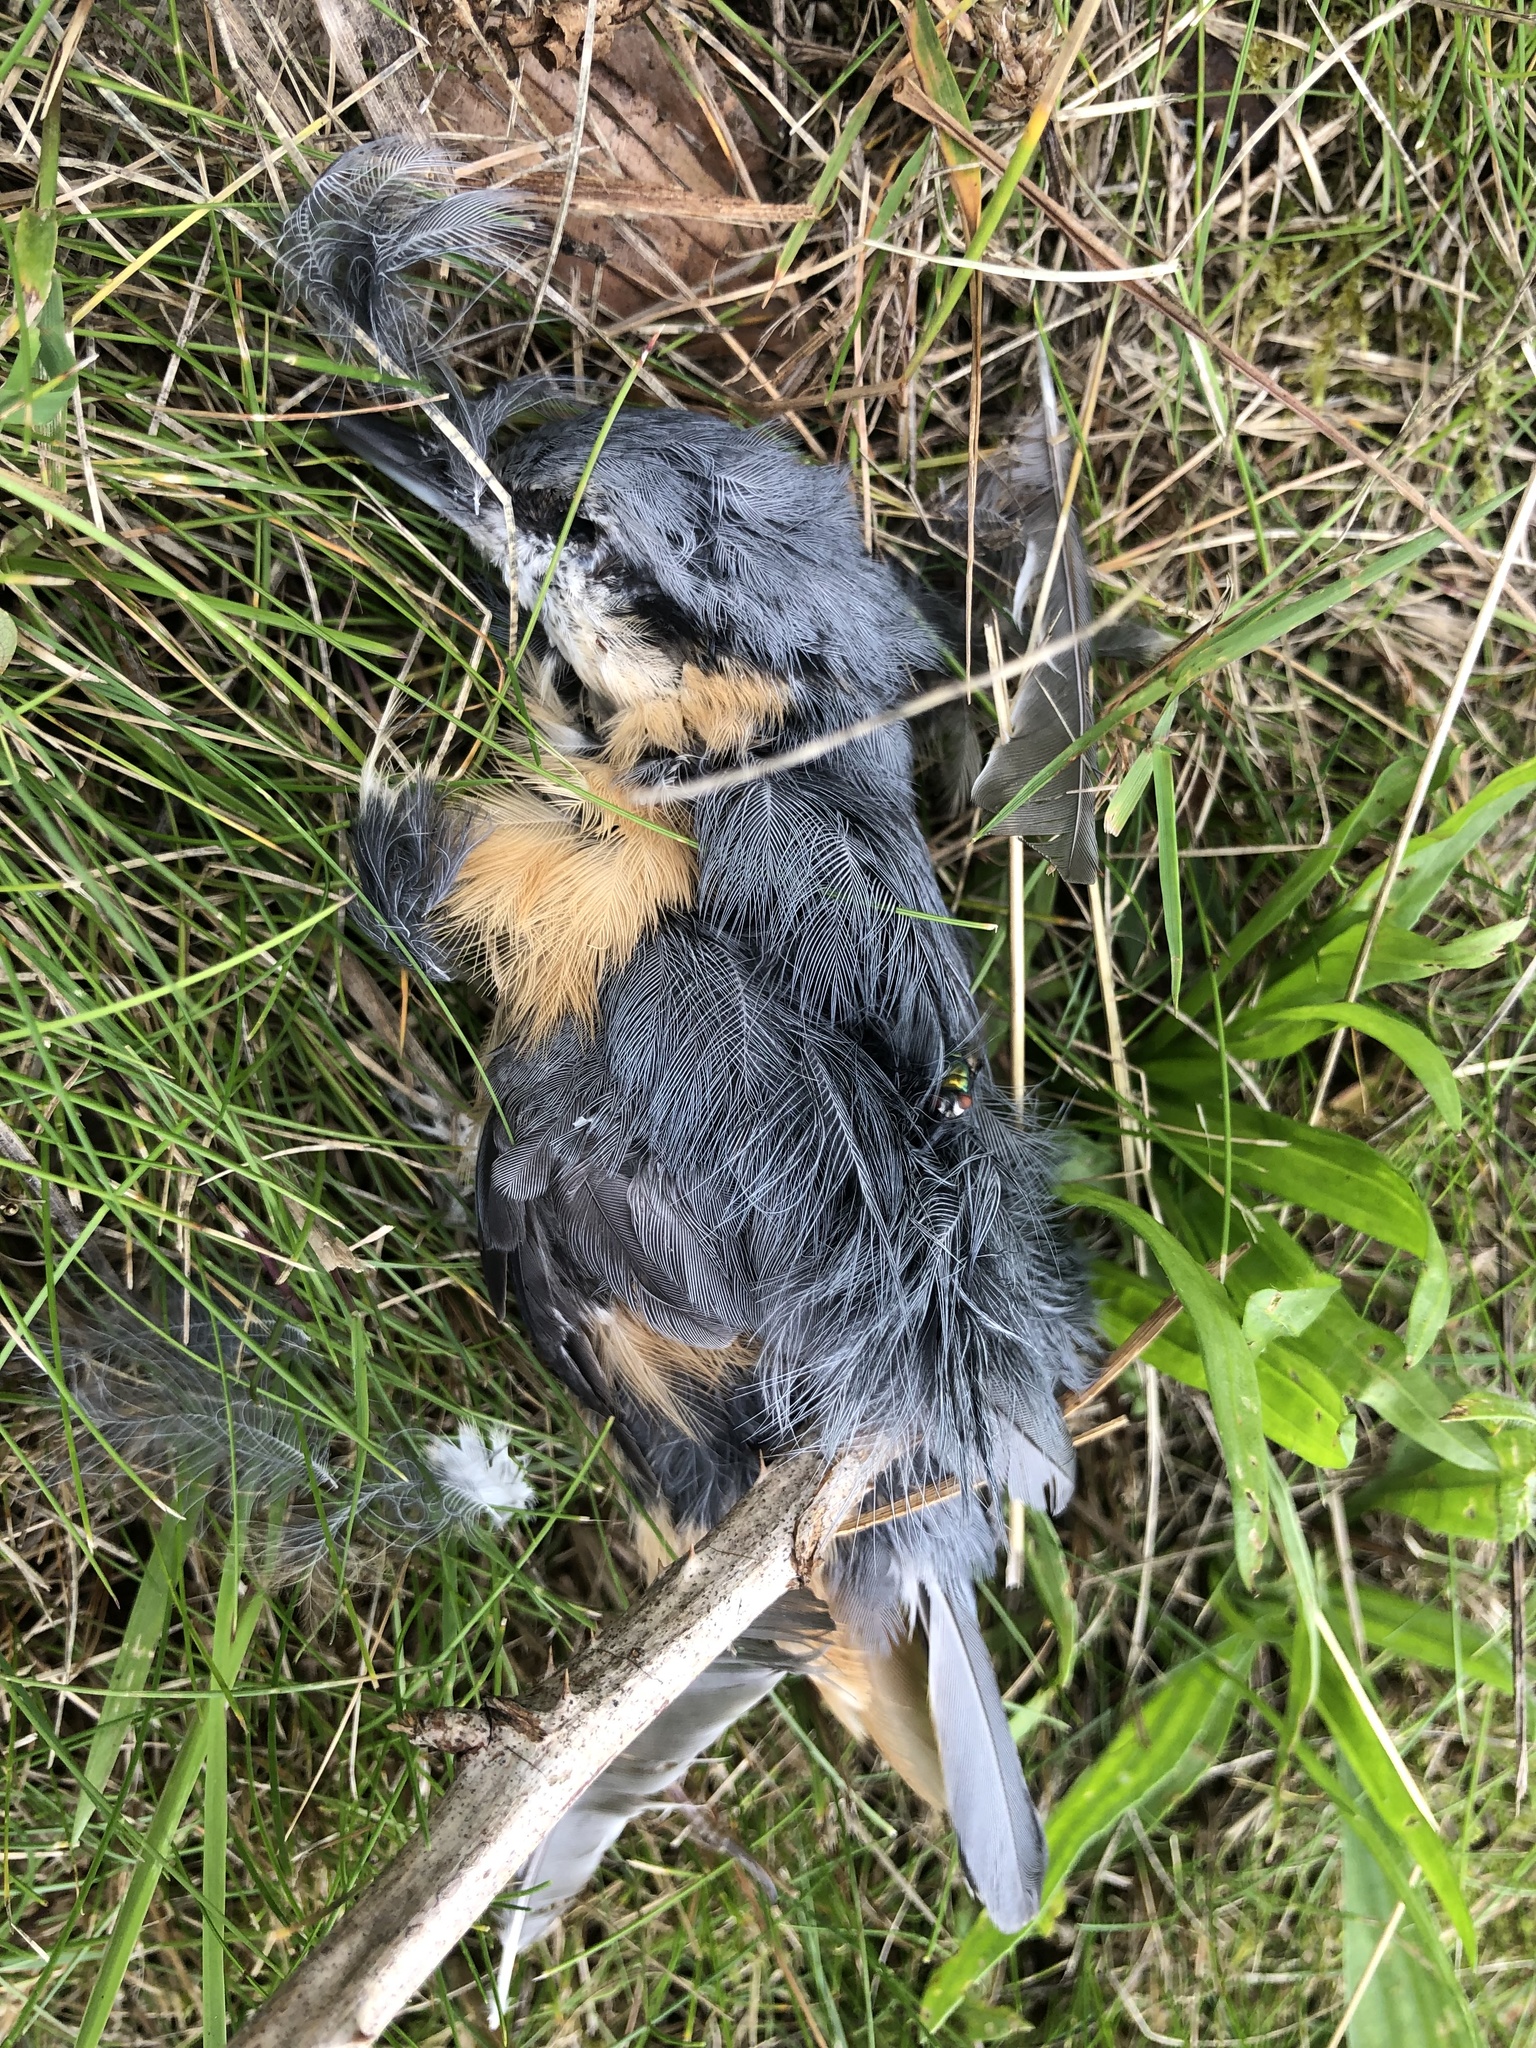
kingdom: Animalia
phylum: Chordata
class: Aves
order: Passeriformes
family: Sittidae
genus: Sitta
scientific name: Sitta europaea
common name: Eurasian nuthatch
